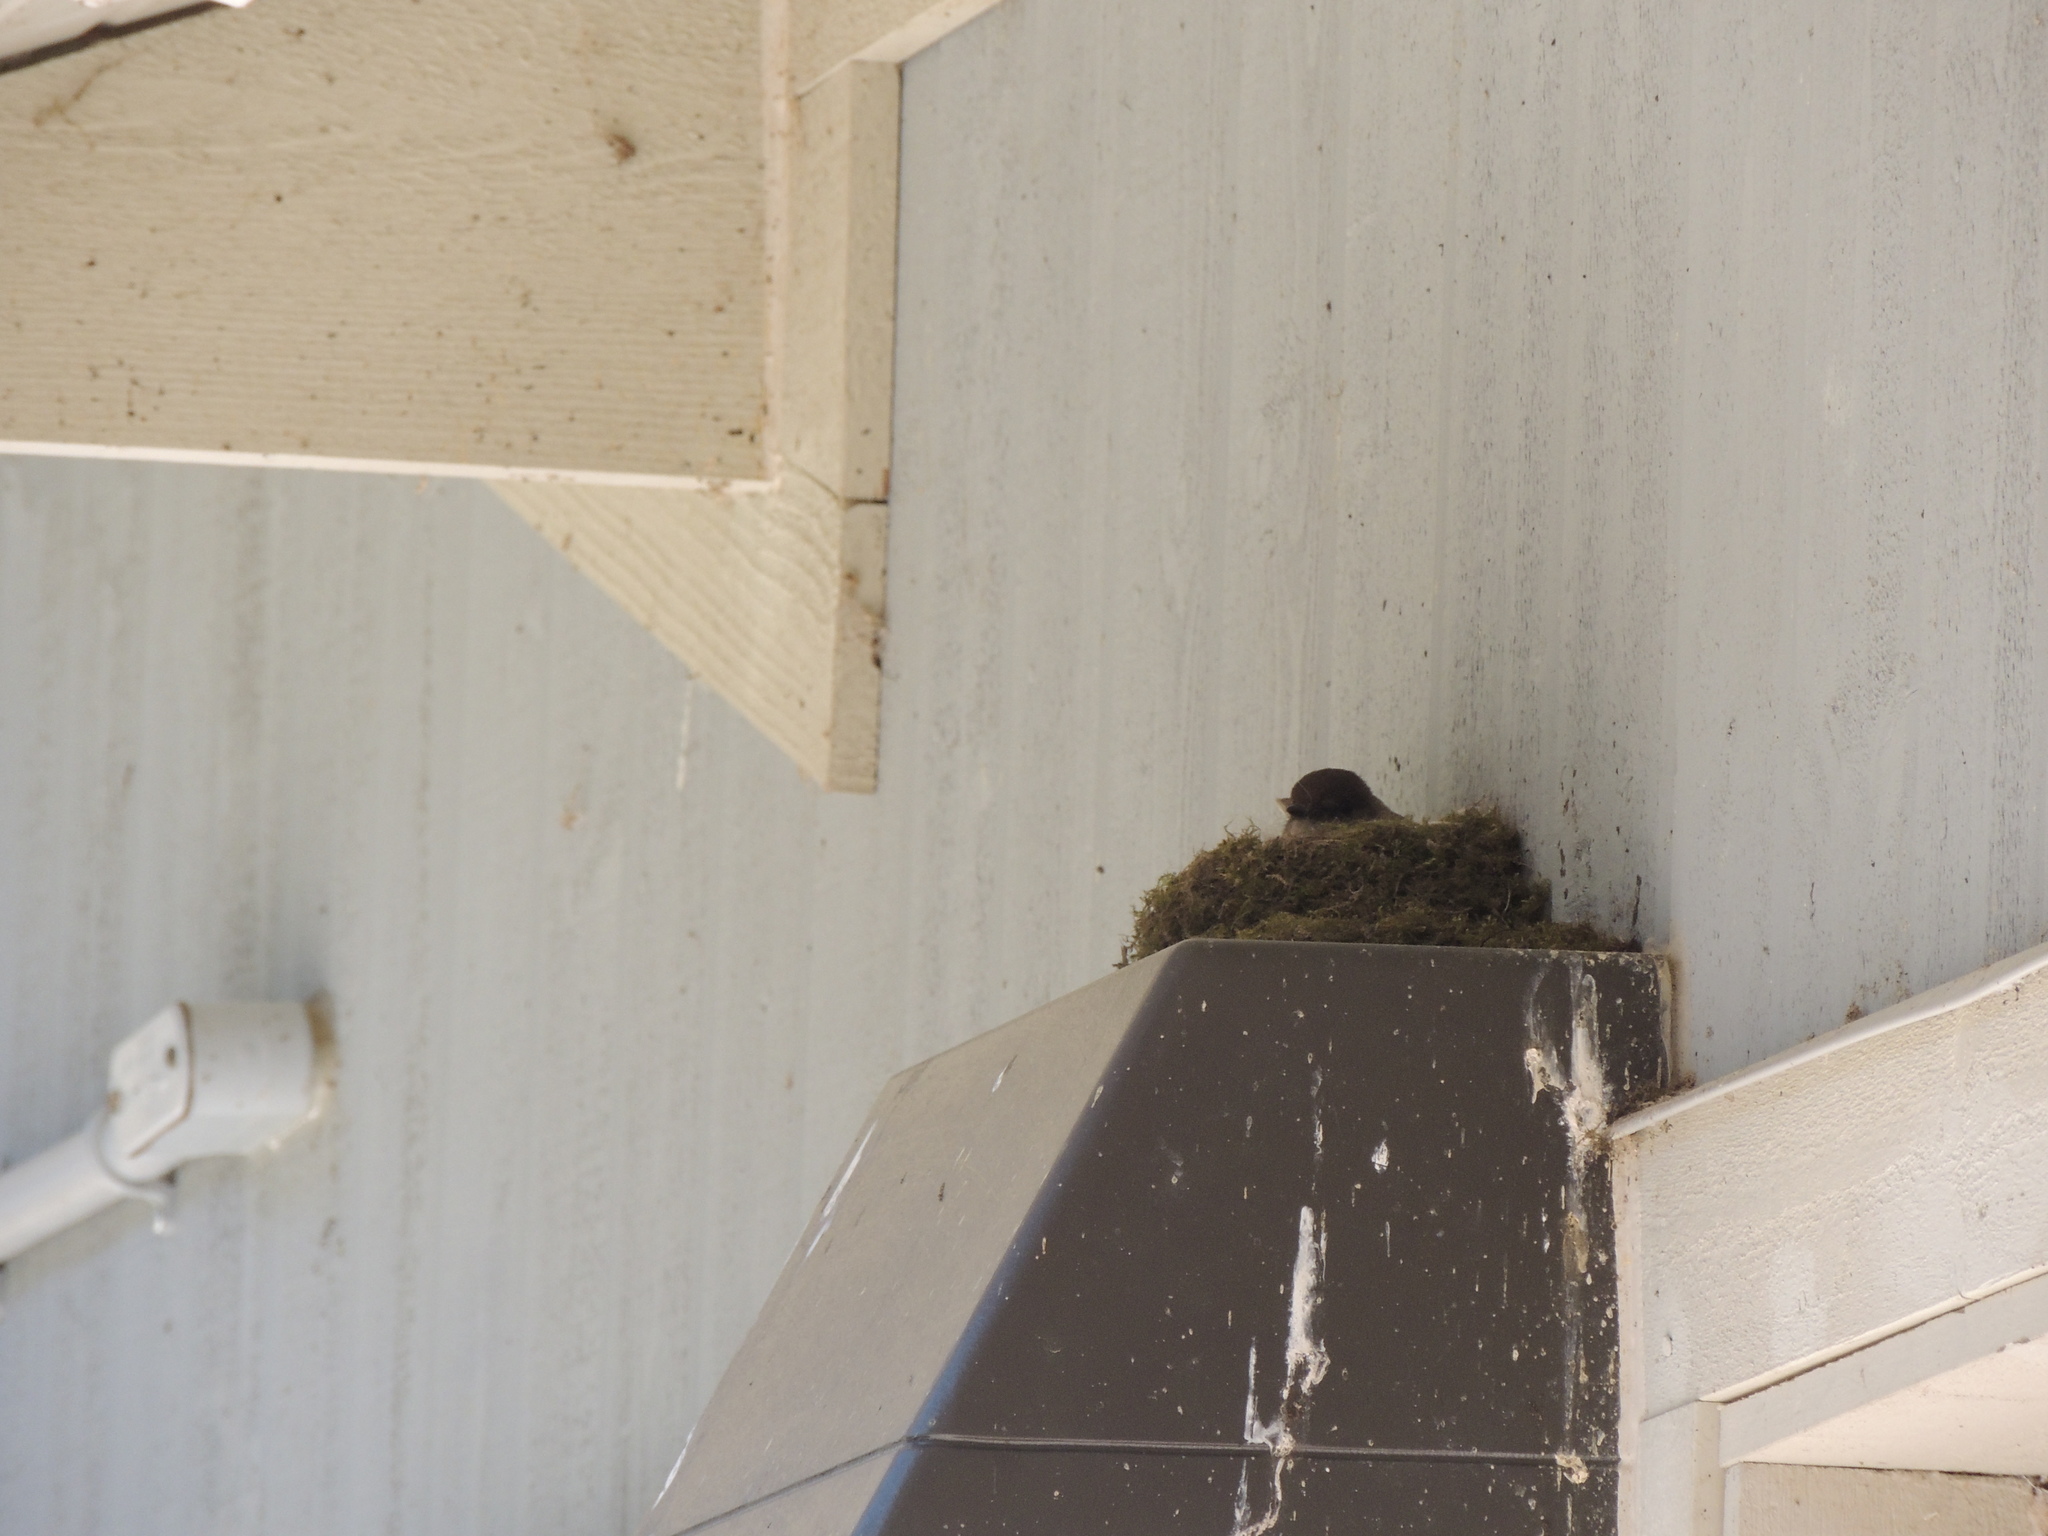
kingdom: Animalia
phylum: Chordata
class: Aves
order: Passeriformes
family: Tyrannidae
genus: Sayornis
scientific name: Sayornis phoebe
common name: Eastern phoebe
